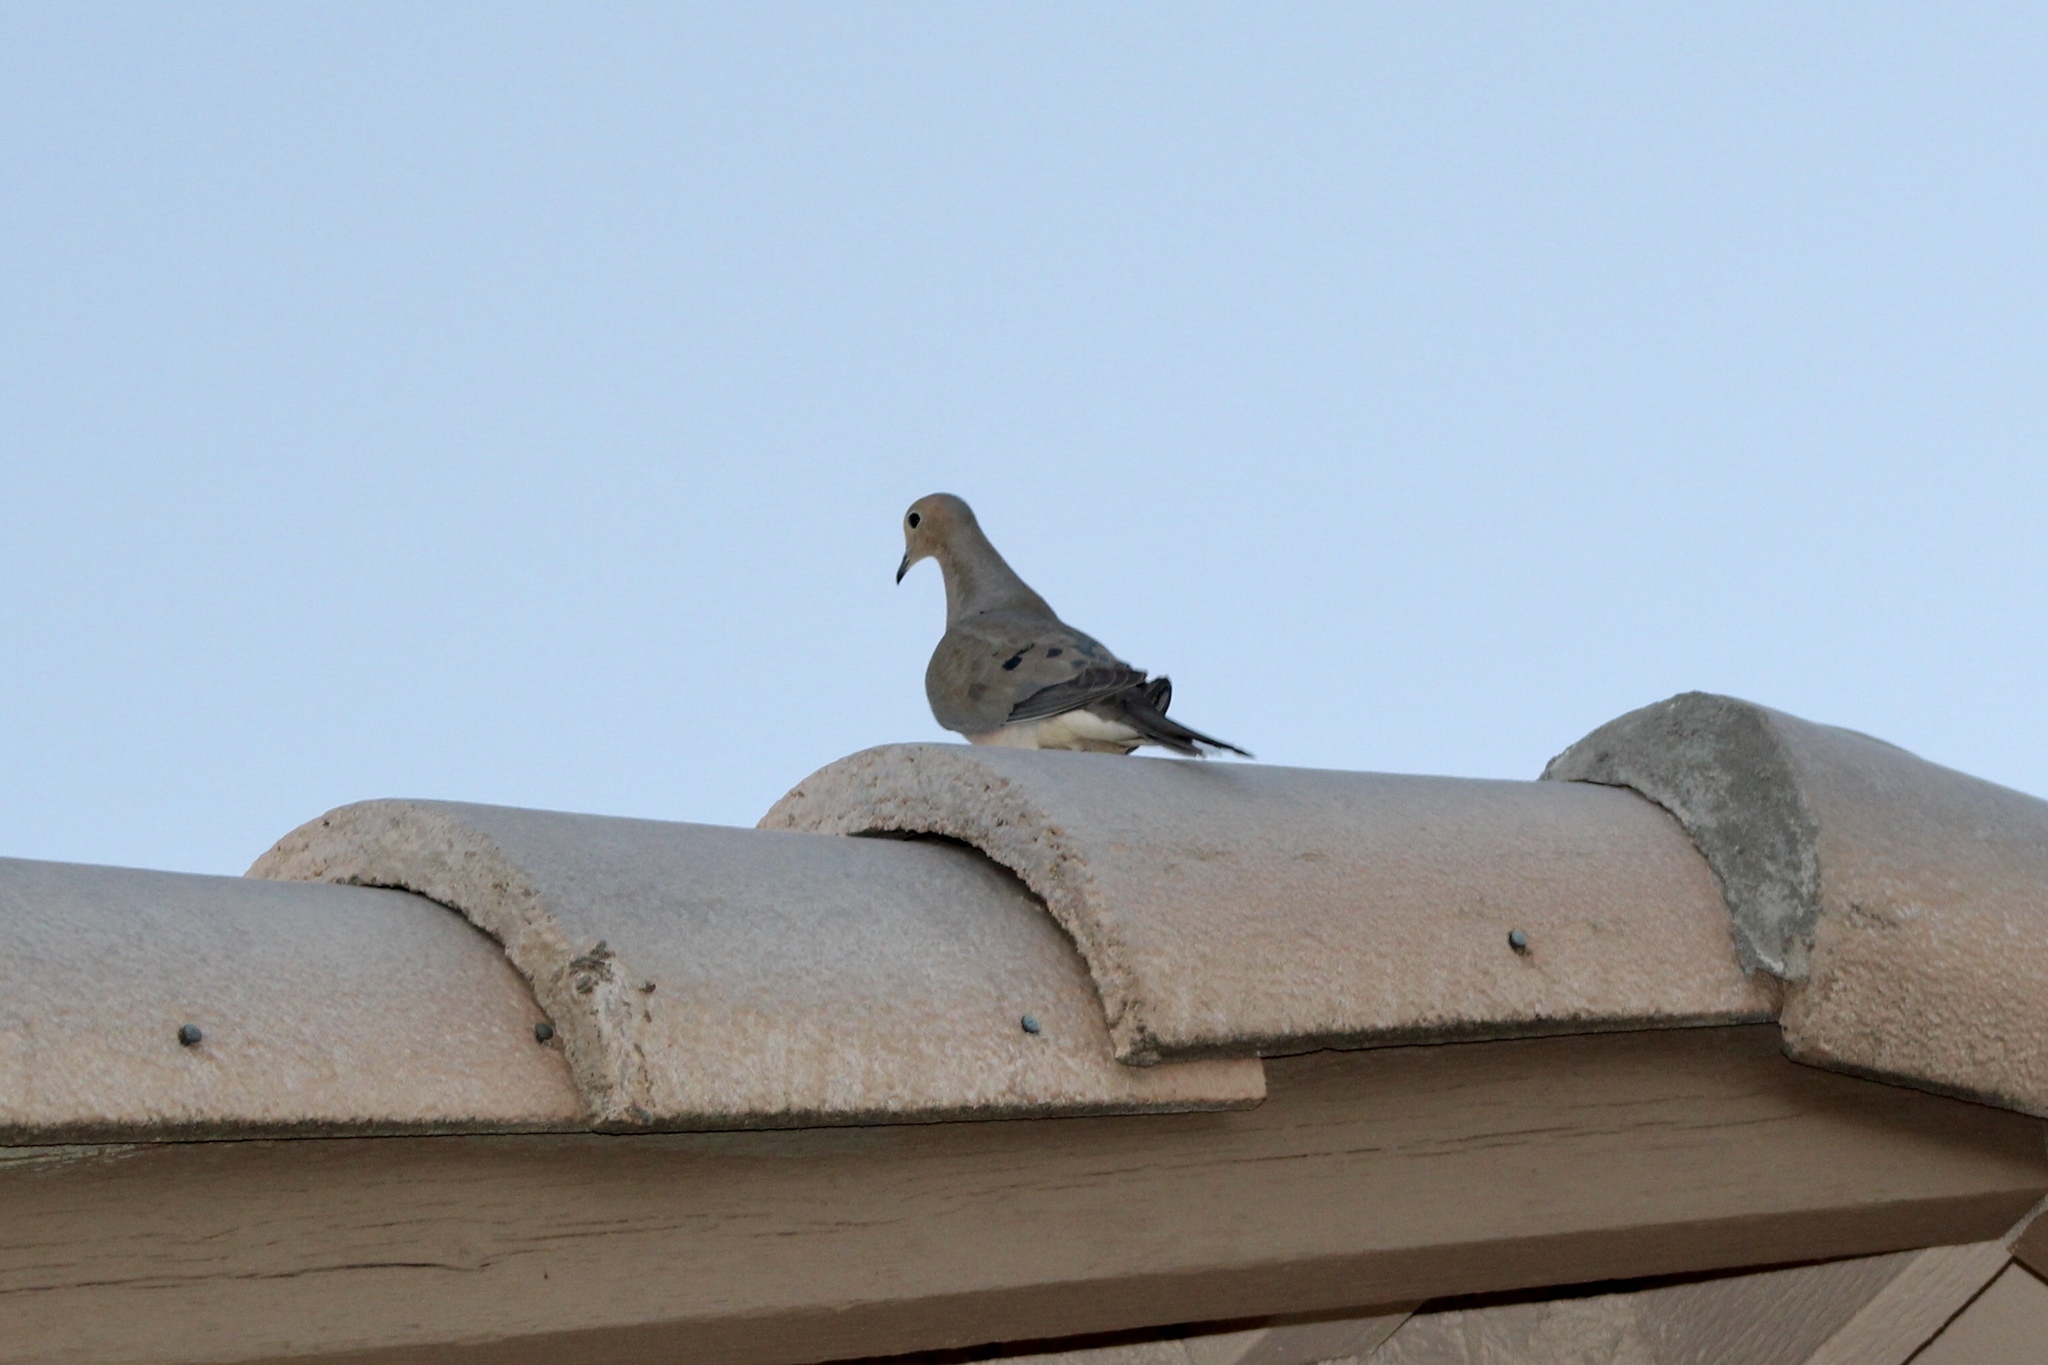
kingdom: Animalia
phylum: Chordata
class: Aves
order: Columbiformes
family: Columbidae
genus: Zenaida
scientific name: Zenaida macroura
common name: Mourning dove
